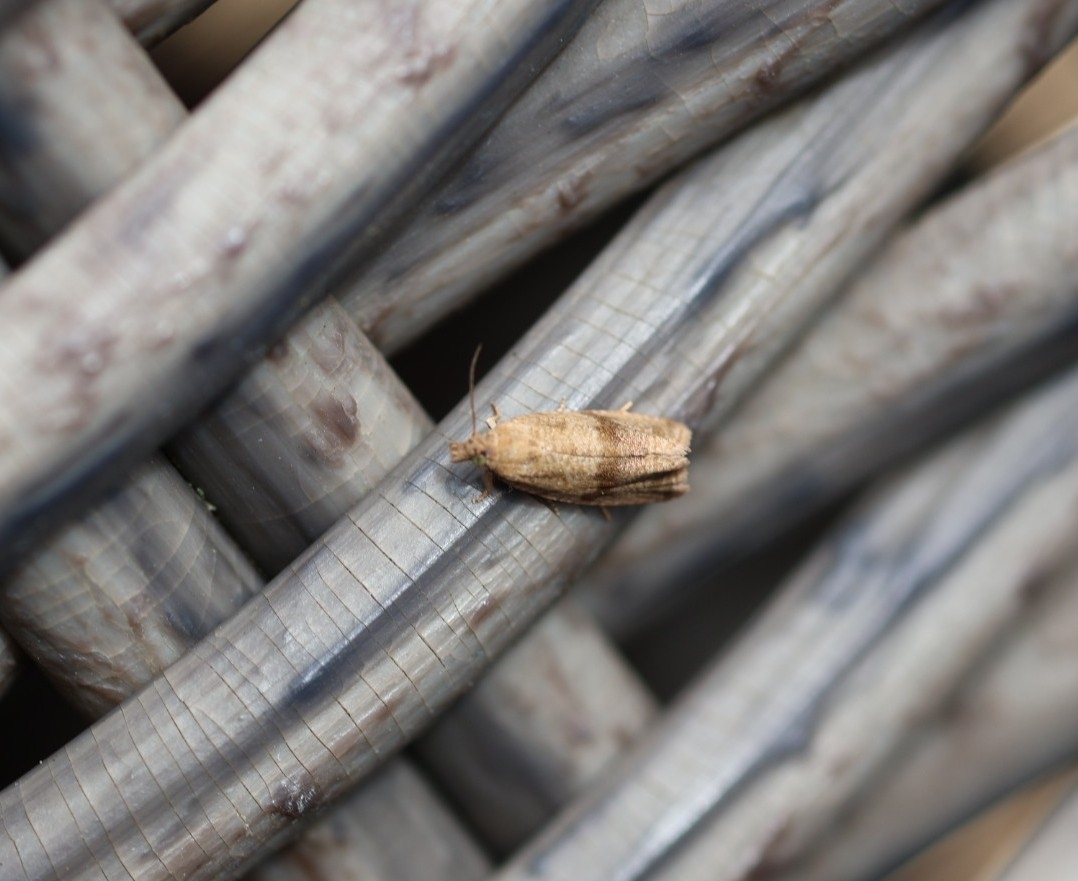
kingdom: Animalia
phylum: Arthropoda
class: Insecta
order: Lepidoptera
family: Tortricidae
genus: Celypha
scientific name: Celypha striana
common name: Barred marble
